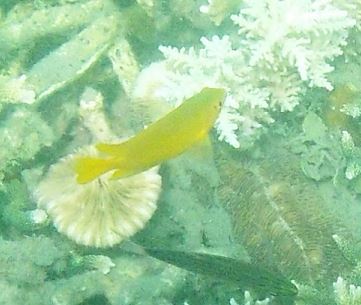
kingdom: Animalia
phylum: Chordata
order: Perciformes
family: Pomacentridae
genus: Pomacentrus
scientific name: Pomacentrus moluccensis
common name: Lemon damsel
